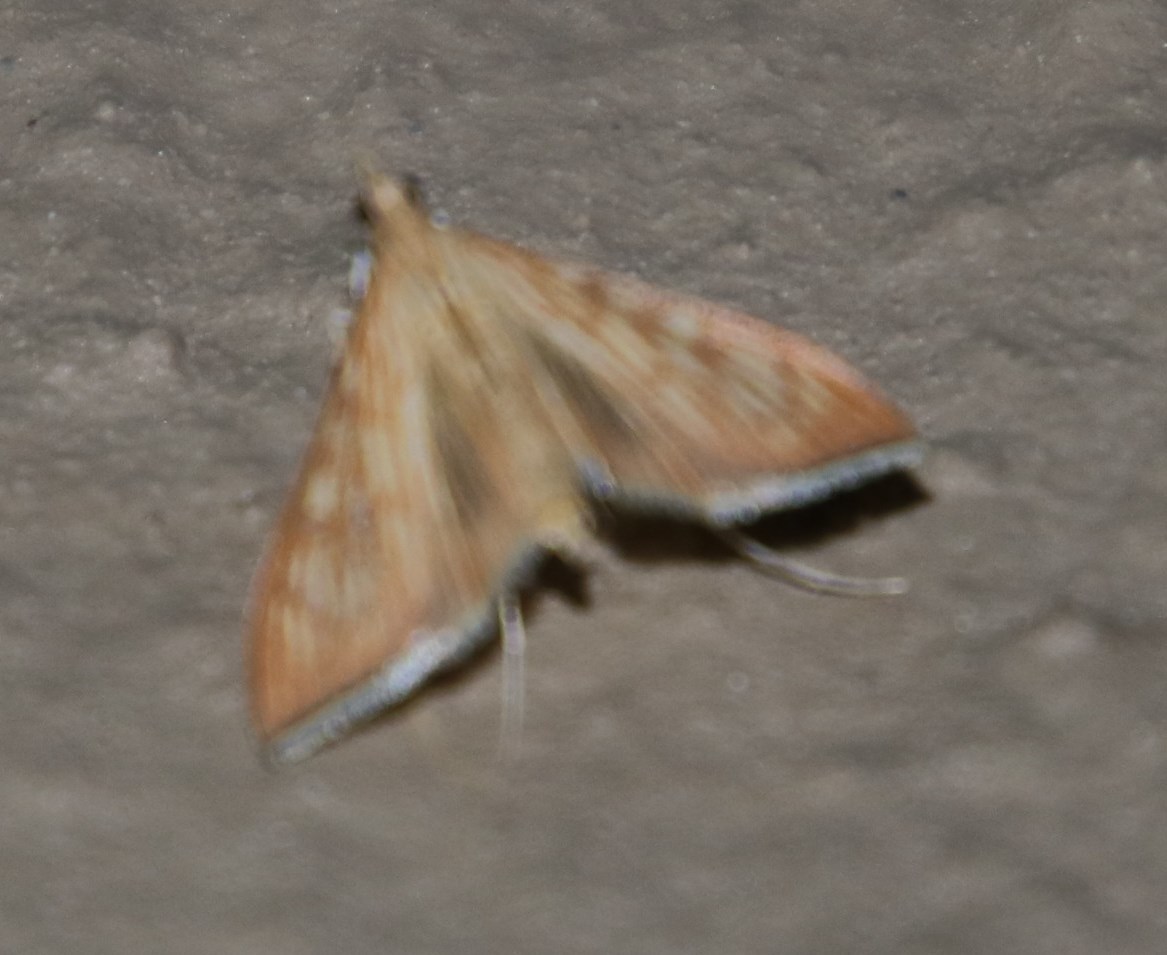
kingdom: Animalia
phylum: Arthropoda
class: Insecta
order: Lepidoptera
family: Crambidae
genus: Antigastra
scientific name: Antigastra catalaunalis
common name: Spanish dot
